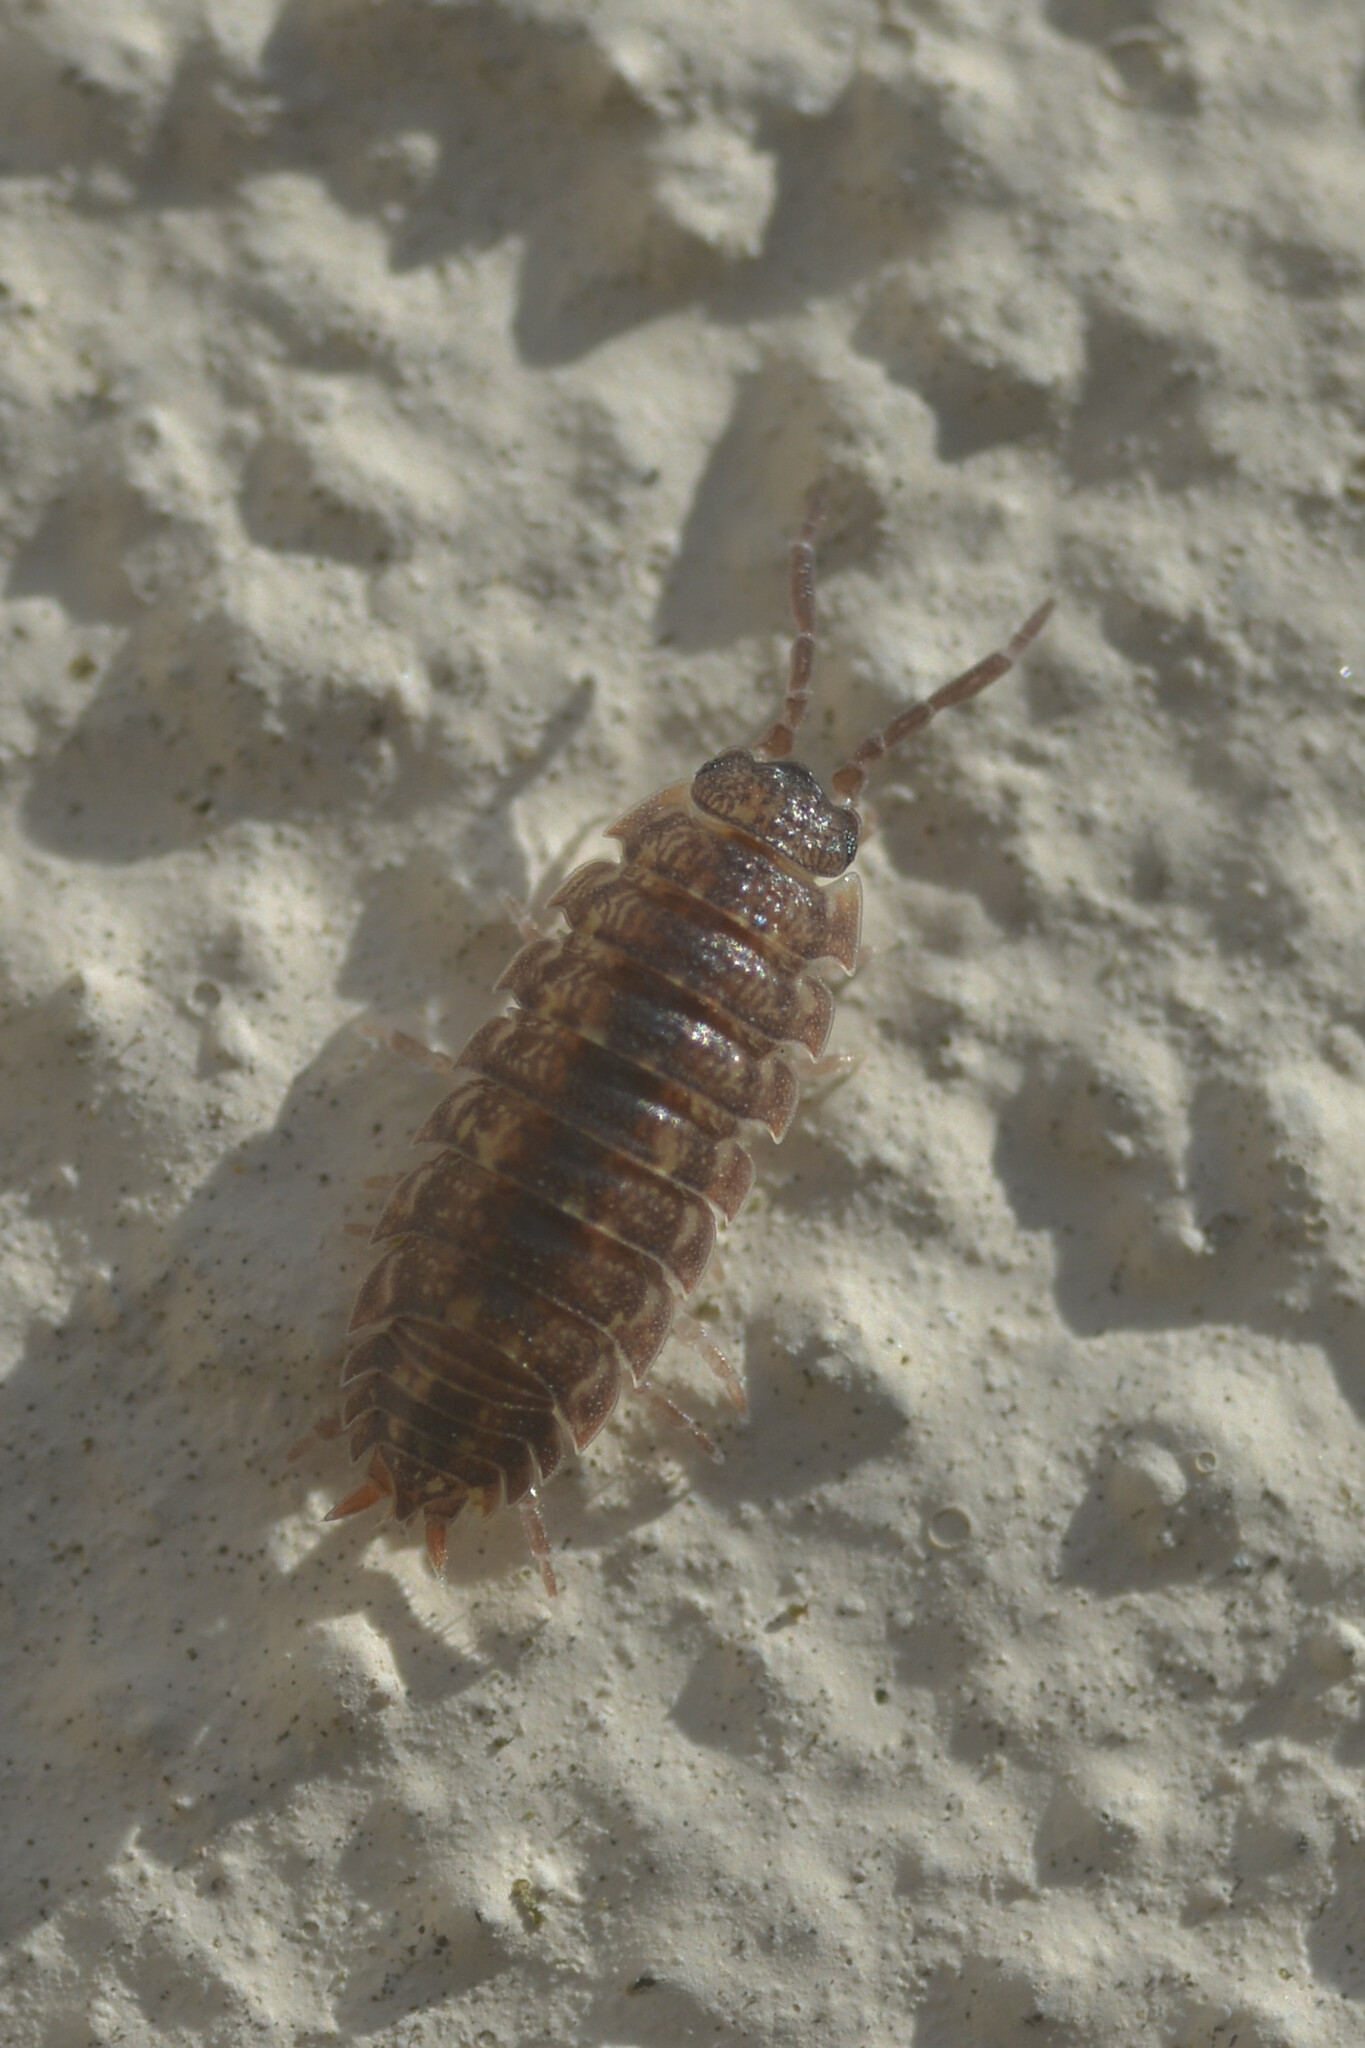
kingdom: Animalia
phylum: Arthropoda
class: Malacostraca
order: Isopoda
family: Porcellionidae
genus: Porcellio
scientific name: Porcellio scaber
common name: Common rough woodlouse
